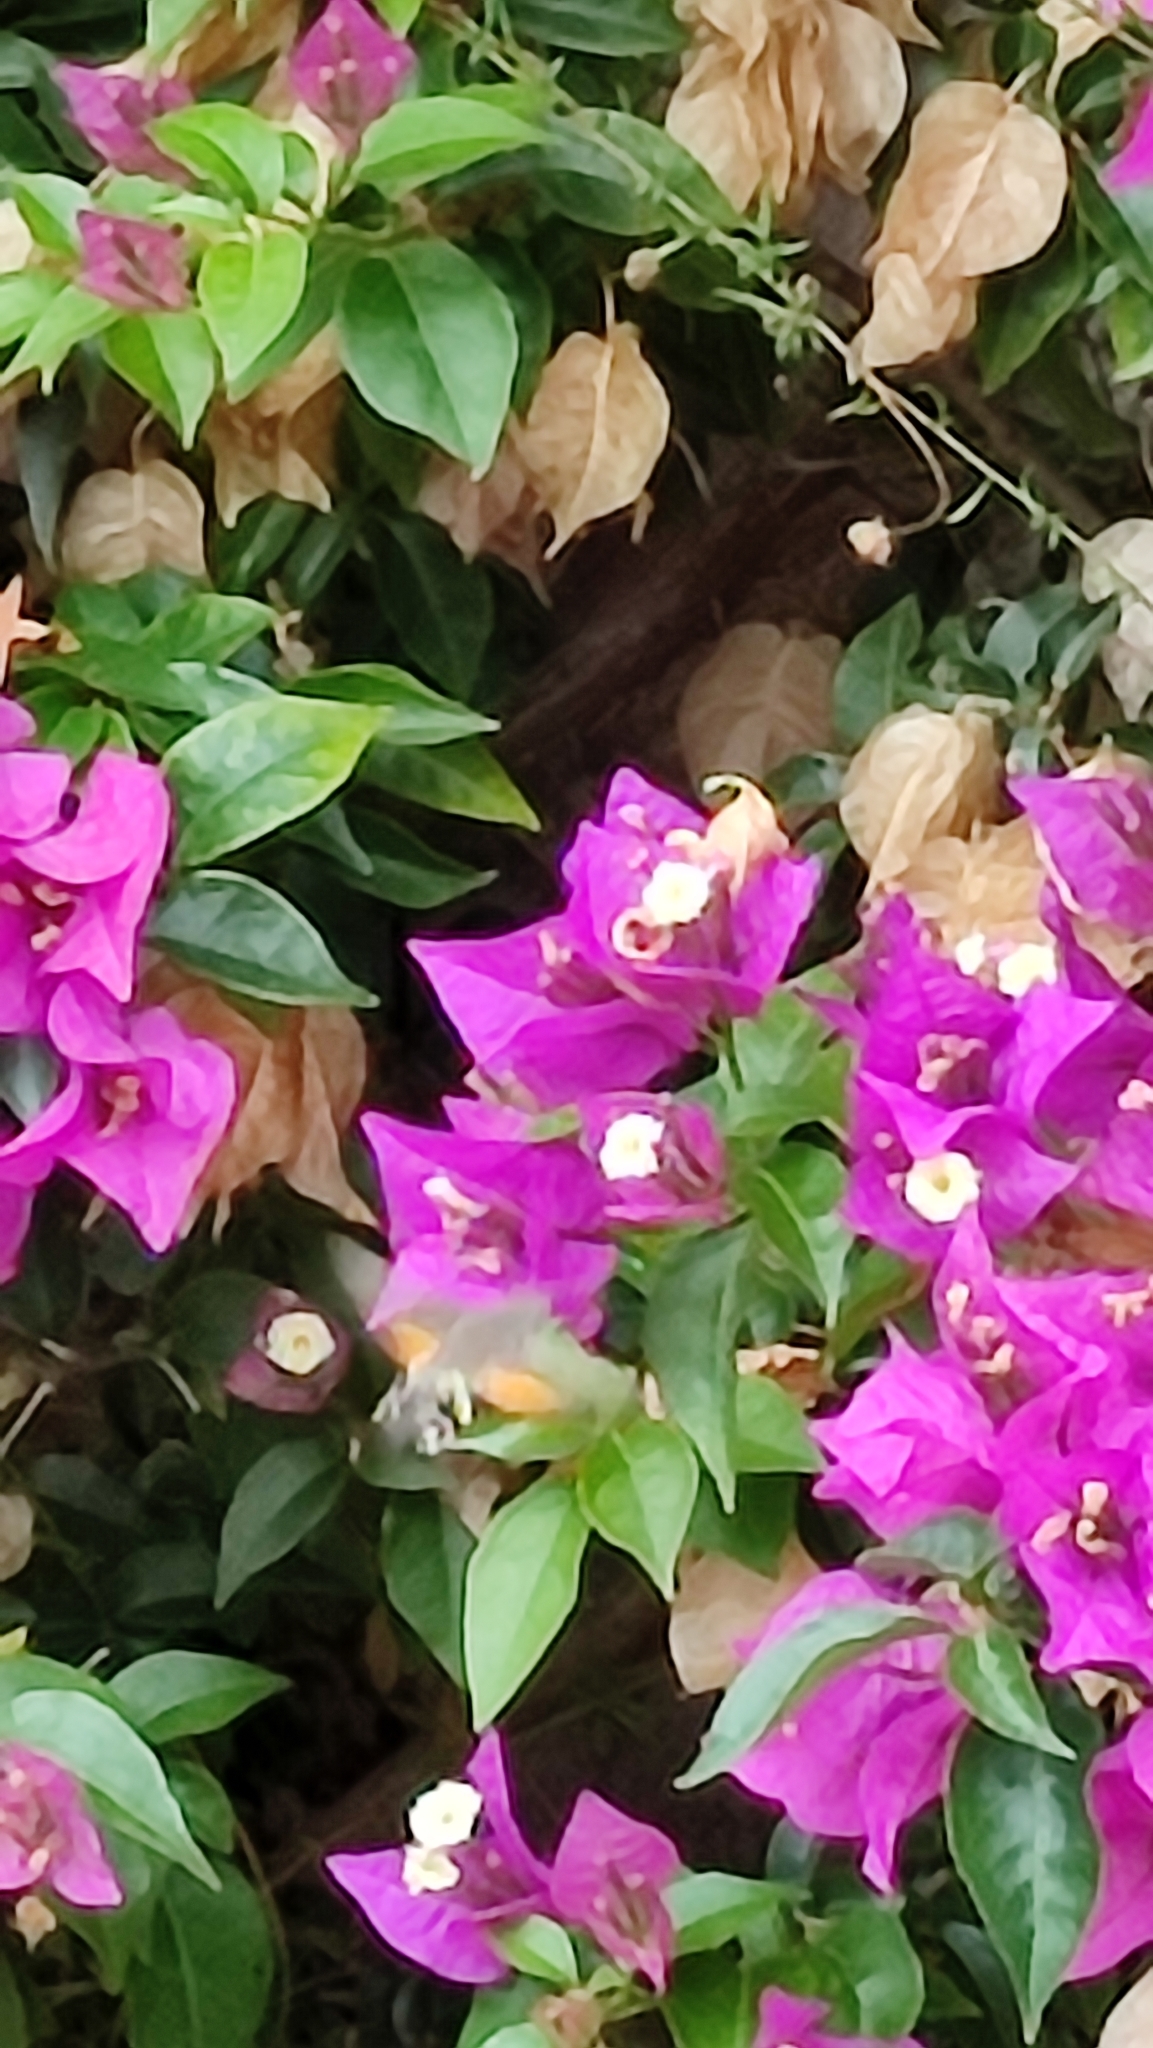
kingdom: Animalia
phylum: Arthropoda
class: Insecta
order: Lepidoptera
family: Sphingidae
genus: Macroglossum
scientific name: Macroglossum stellatarum
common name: Humming-bird hawk-moth
